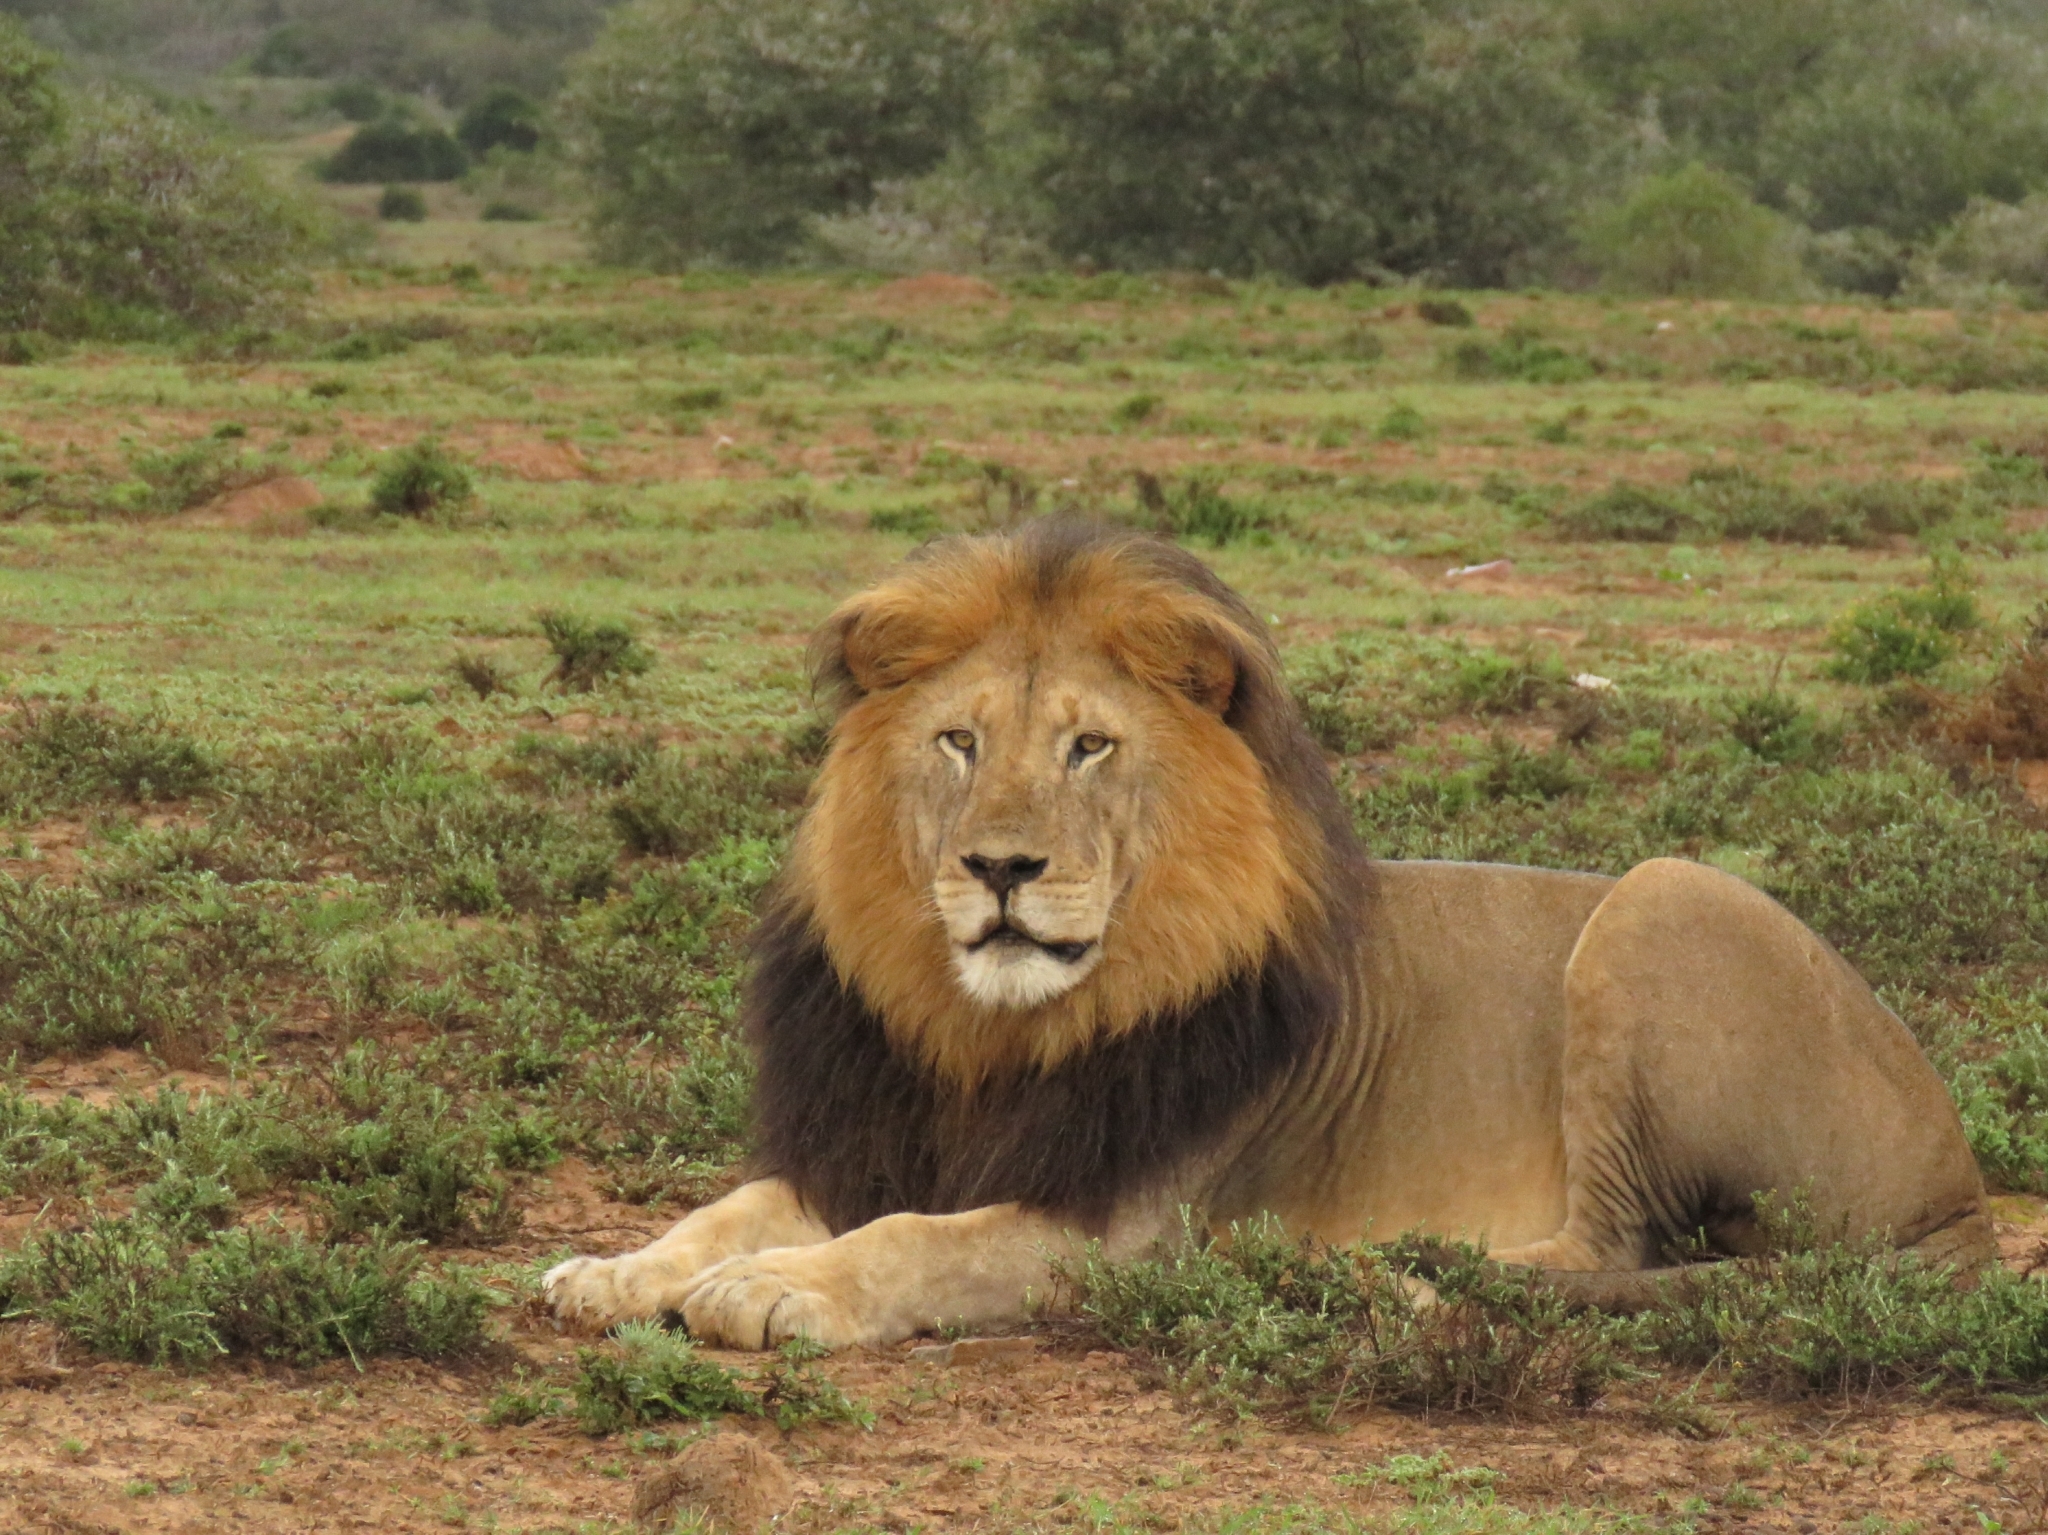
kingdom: Animalia
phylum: Chordata
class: Mammalia
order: Carnivora
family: Felidae
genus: Panthera
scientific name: Panthera leo
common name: Lion
